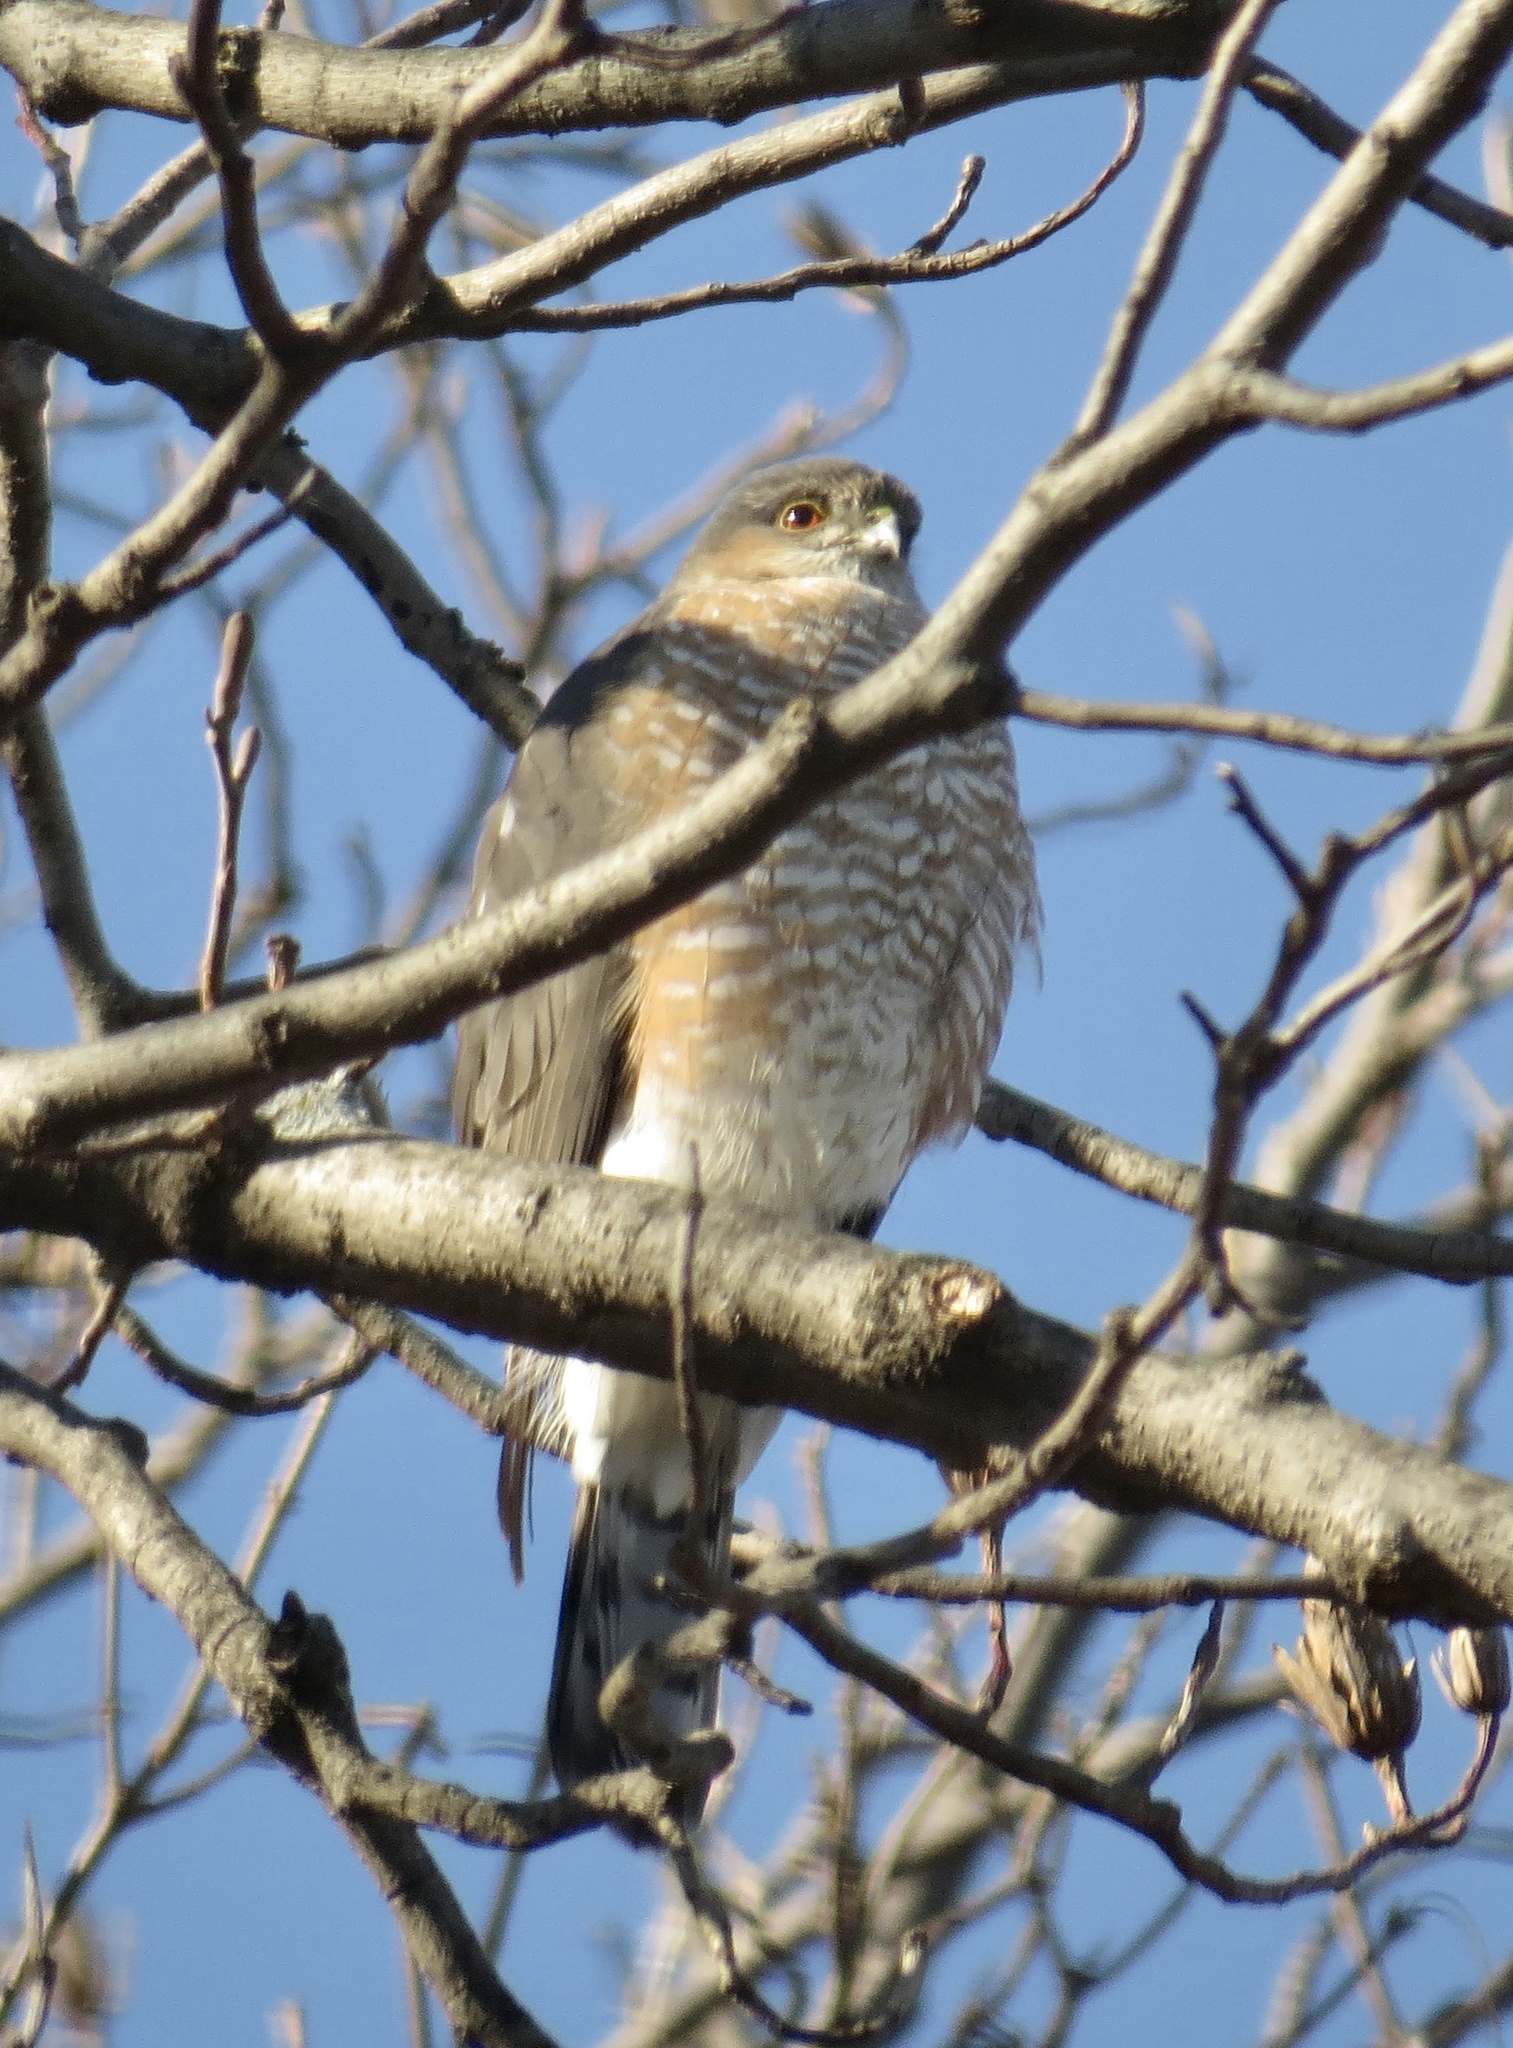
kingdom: Animalia
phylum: Chordata
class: Aves
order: Accipitriformes
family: Accipitridae
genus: Accipiter
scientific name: Accipiter striatus
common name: Sharp-shinned hawk
